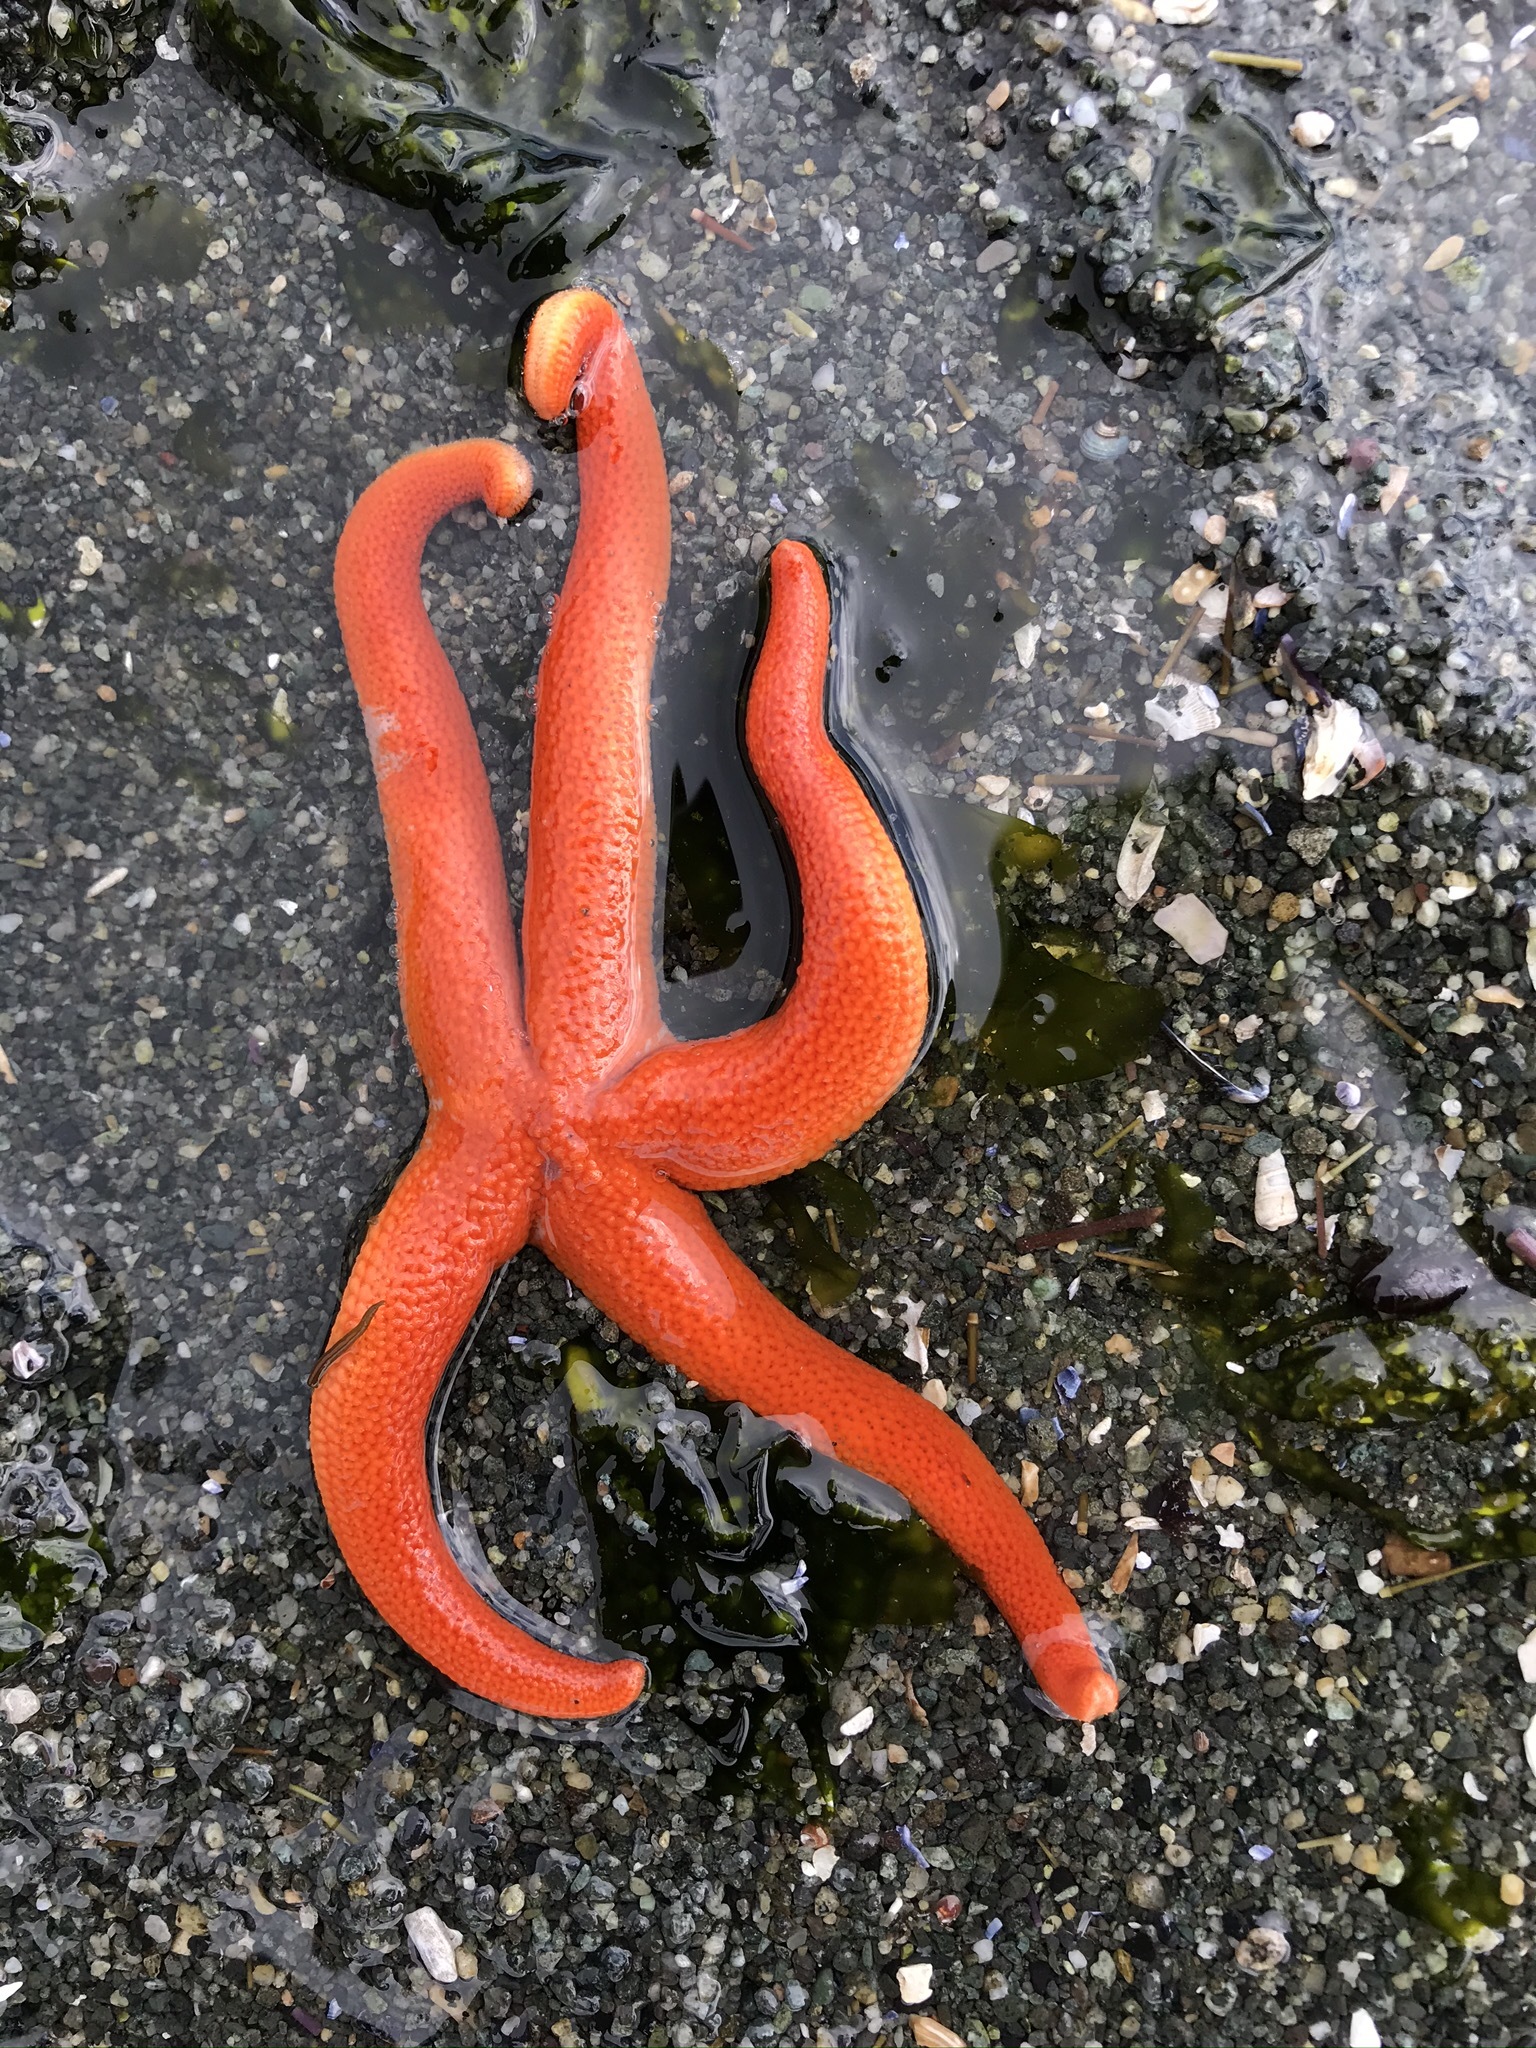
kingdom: Animalia
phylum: Echinodermata
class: Asteroidea
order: Spinulosida
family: Echinasteridae
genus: Henricia
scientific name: Henricia leviuscula
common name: Pacific blood star
